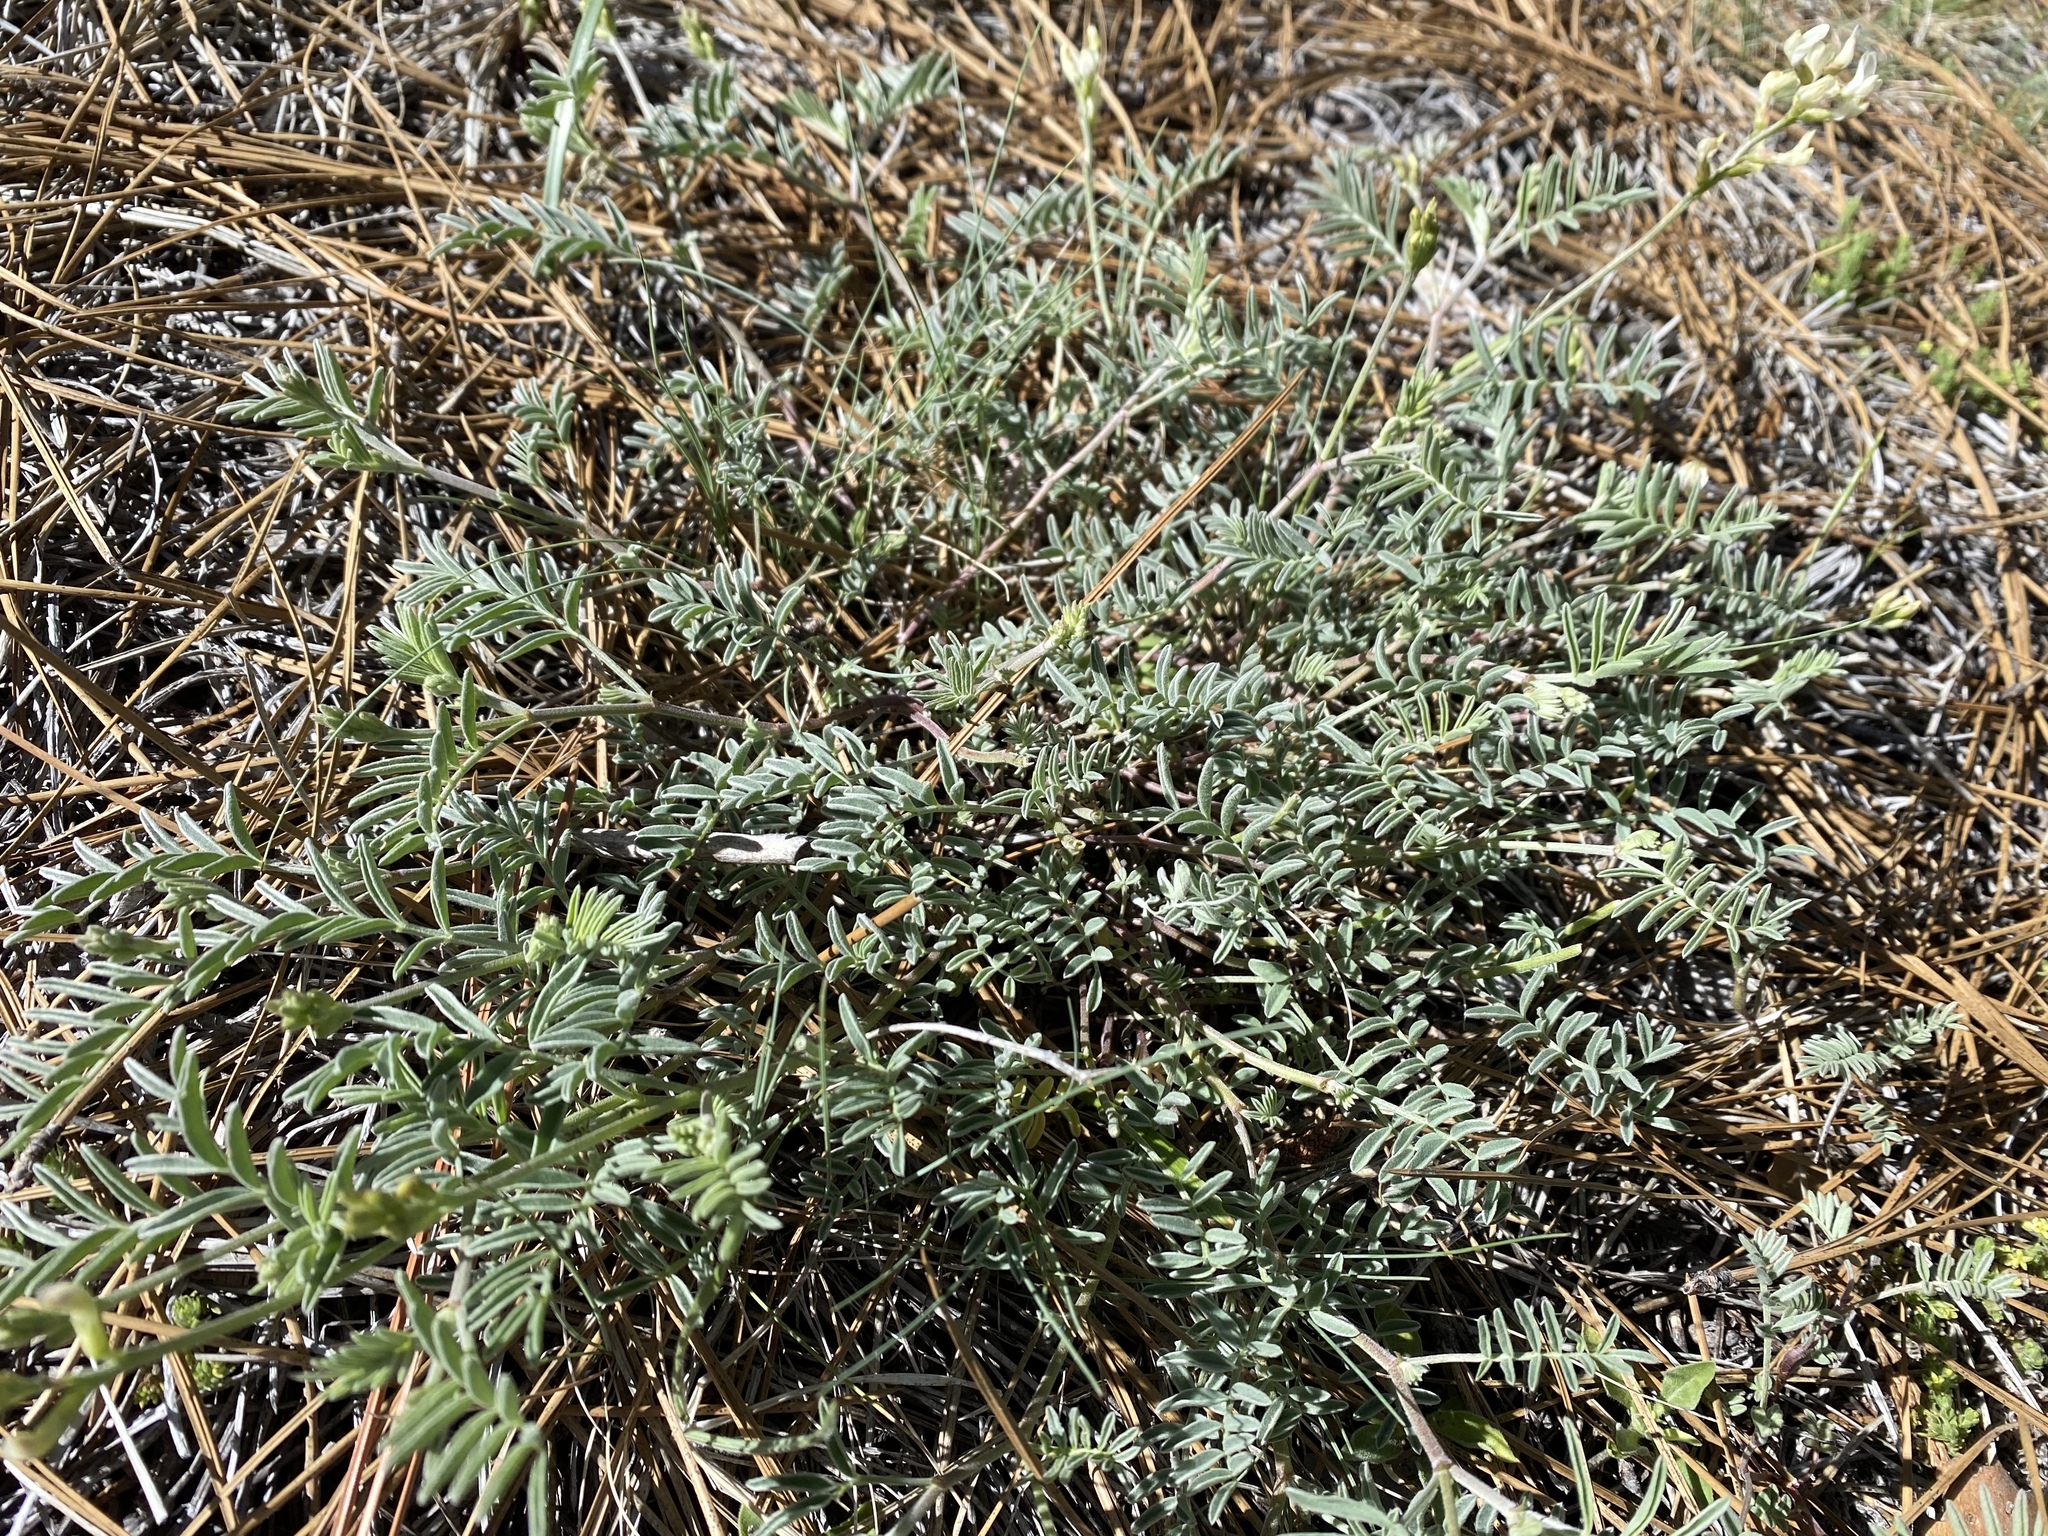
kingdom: Plantae
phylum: Tracheophyta
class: Magnoliopsida
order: Fabales
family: Fabaceae
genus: Astragalus
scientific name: Astragalus whitneyi
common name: Balloonpod milkvetch
